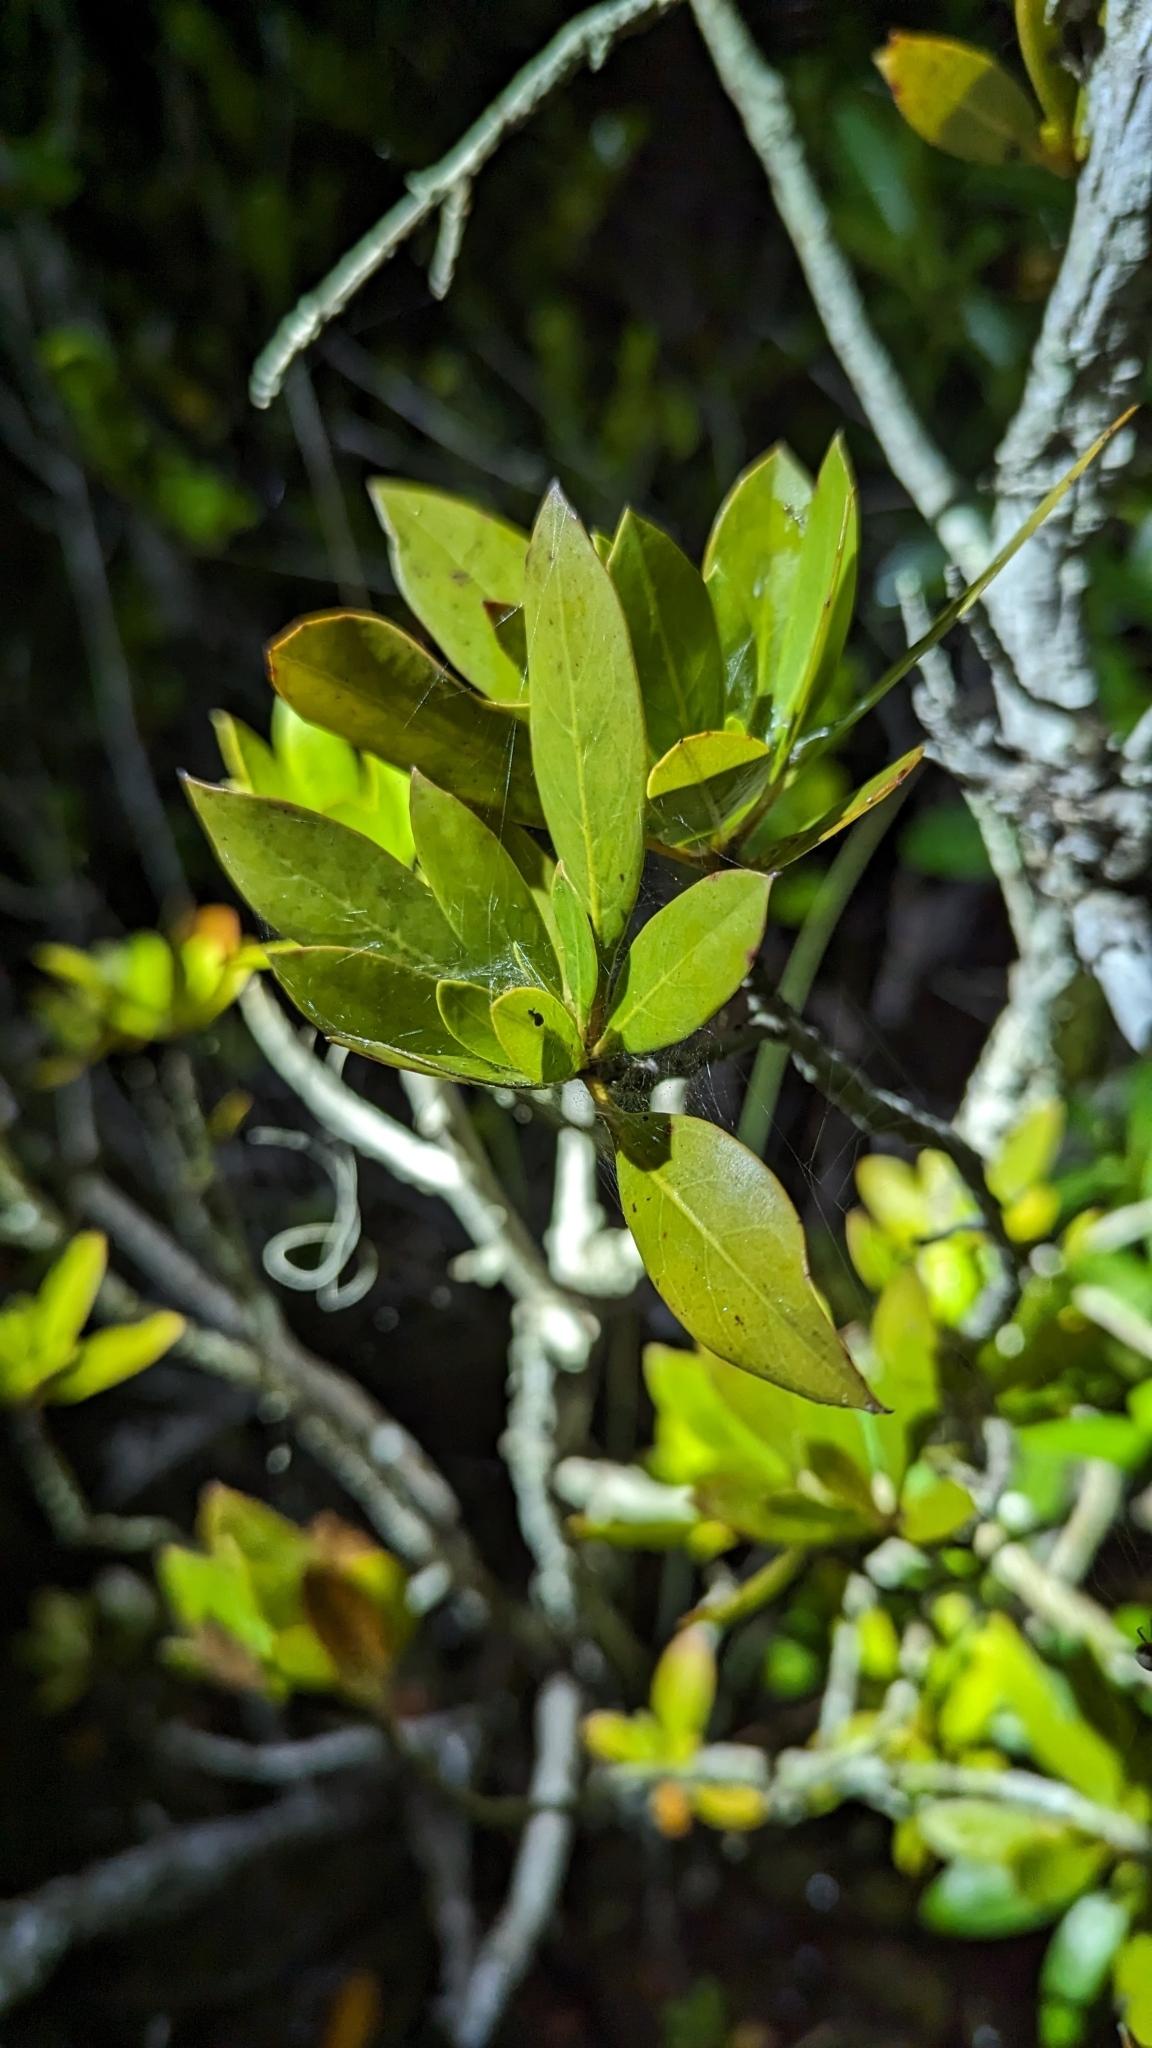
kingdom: Plantae
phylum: Tracheophyta
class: Magnoliopsida
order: Myrtales
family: Combretaceae
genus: Conocarpus
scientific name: Conocarpus erectus
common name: Button mangrove
